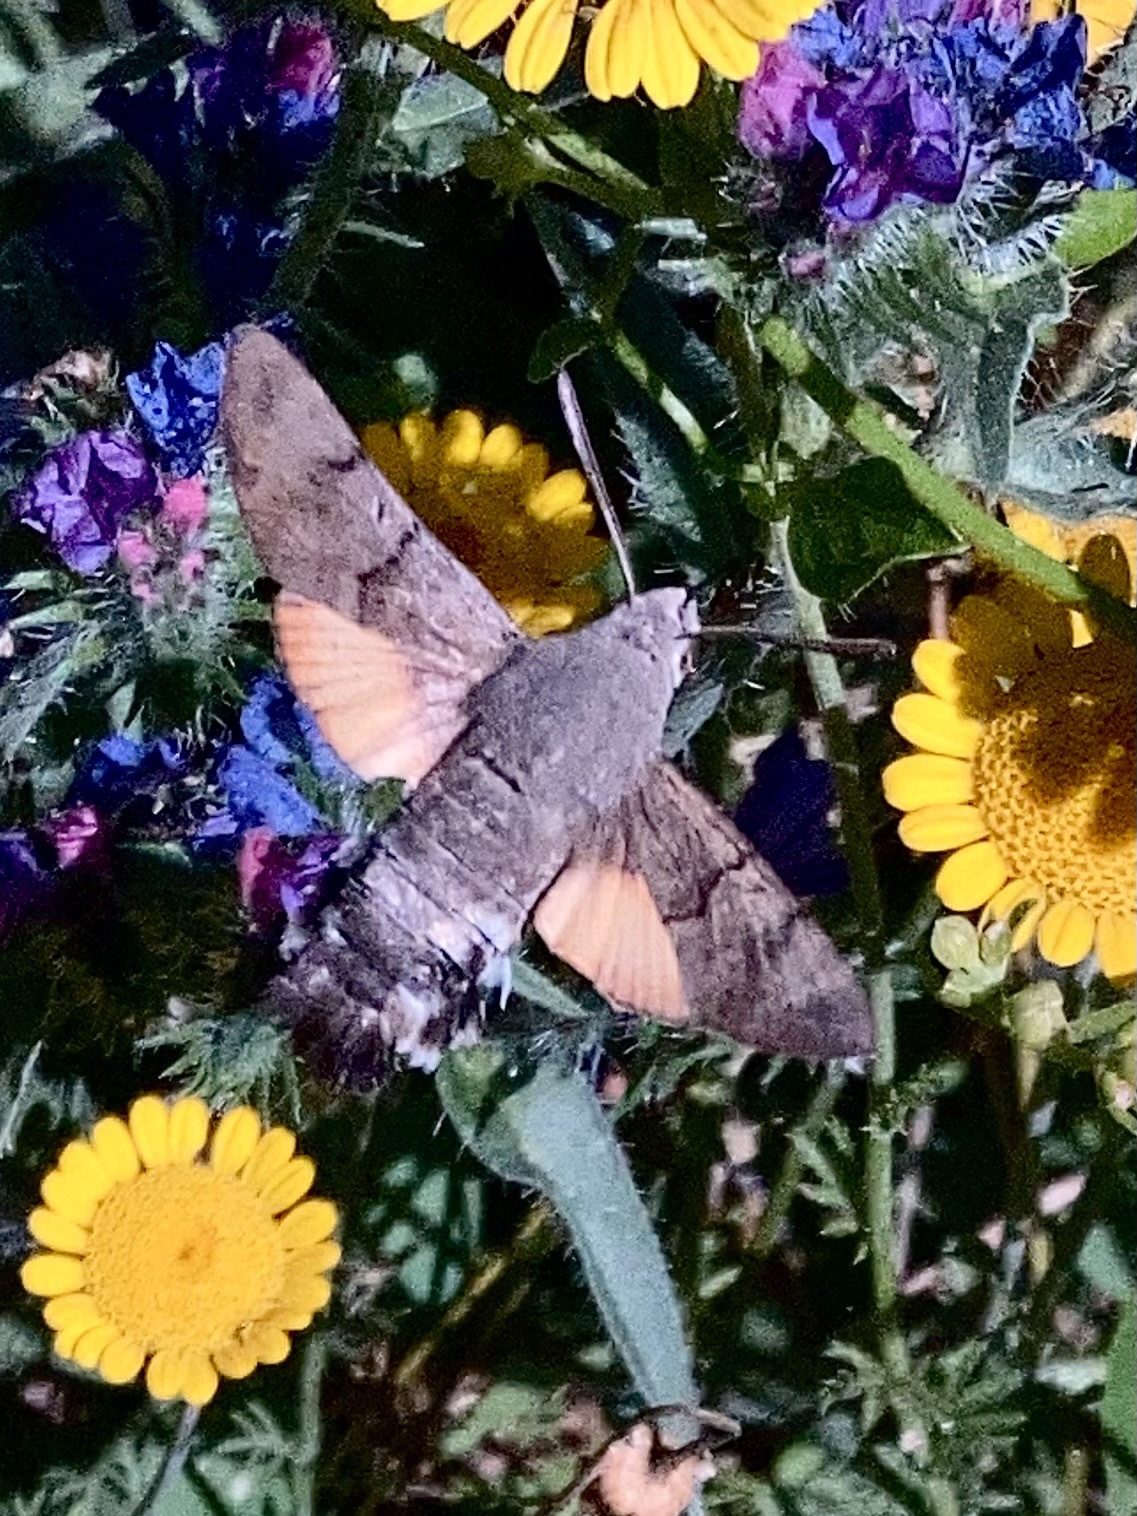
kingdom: Animalia
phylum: Arthropoda
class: Insecta
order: Lepidoptera
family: Sphingidae
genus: Macroglossum
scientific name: Macroglossum stellatarum
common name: Humming-bird hawk-moth
